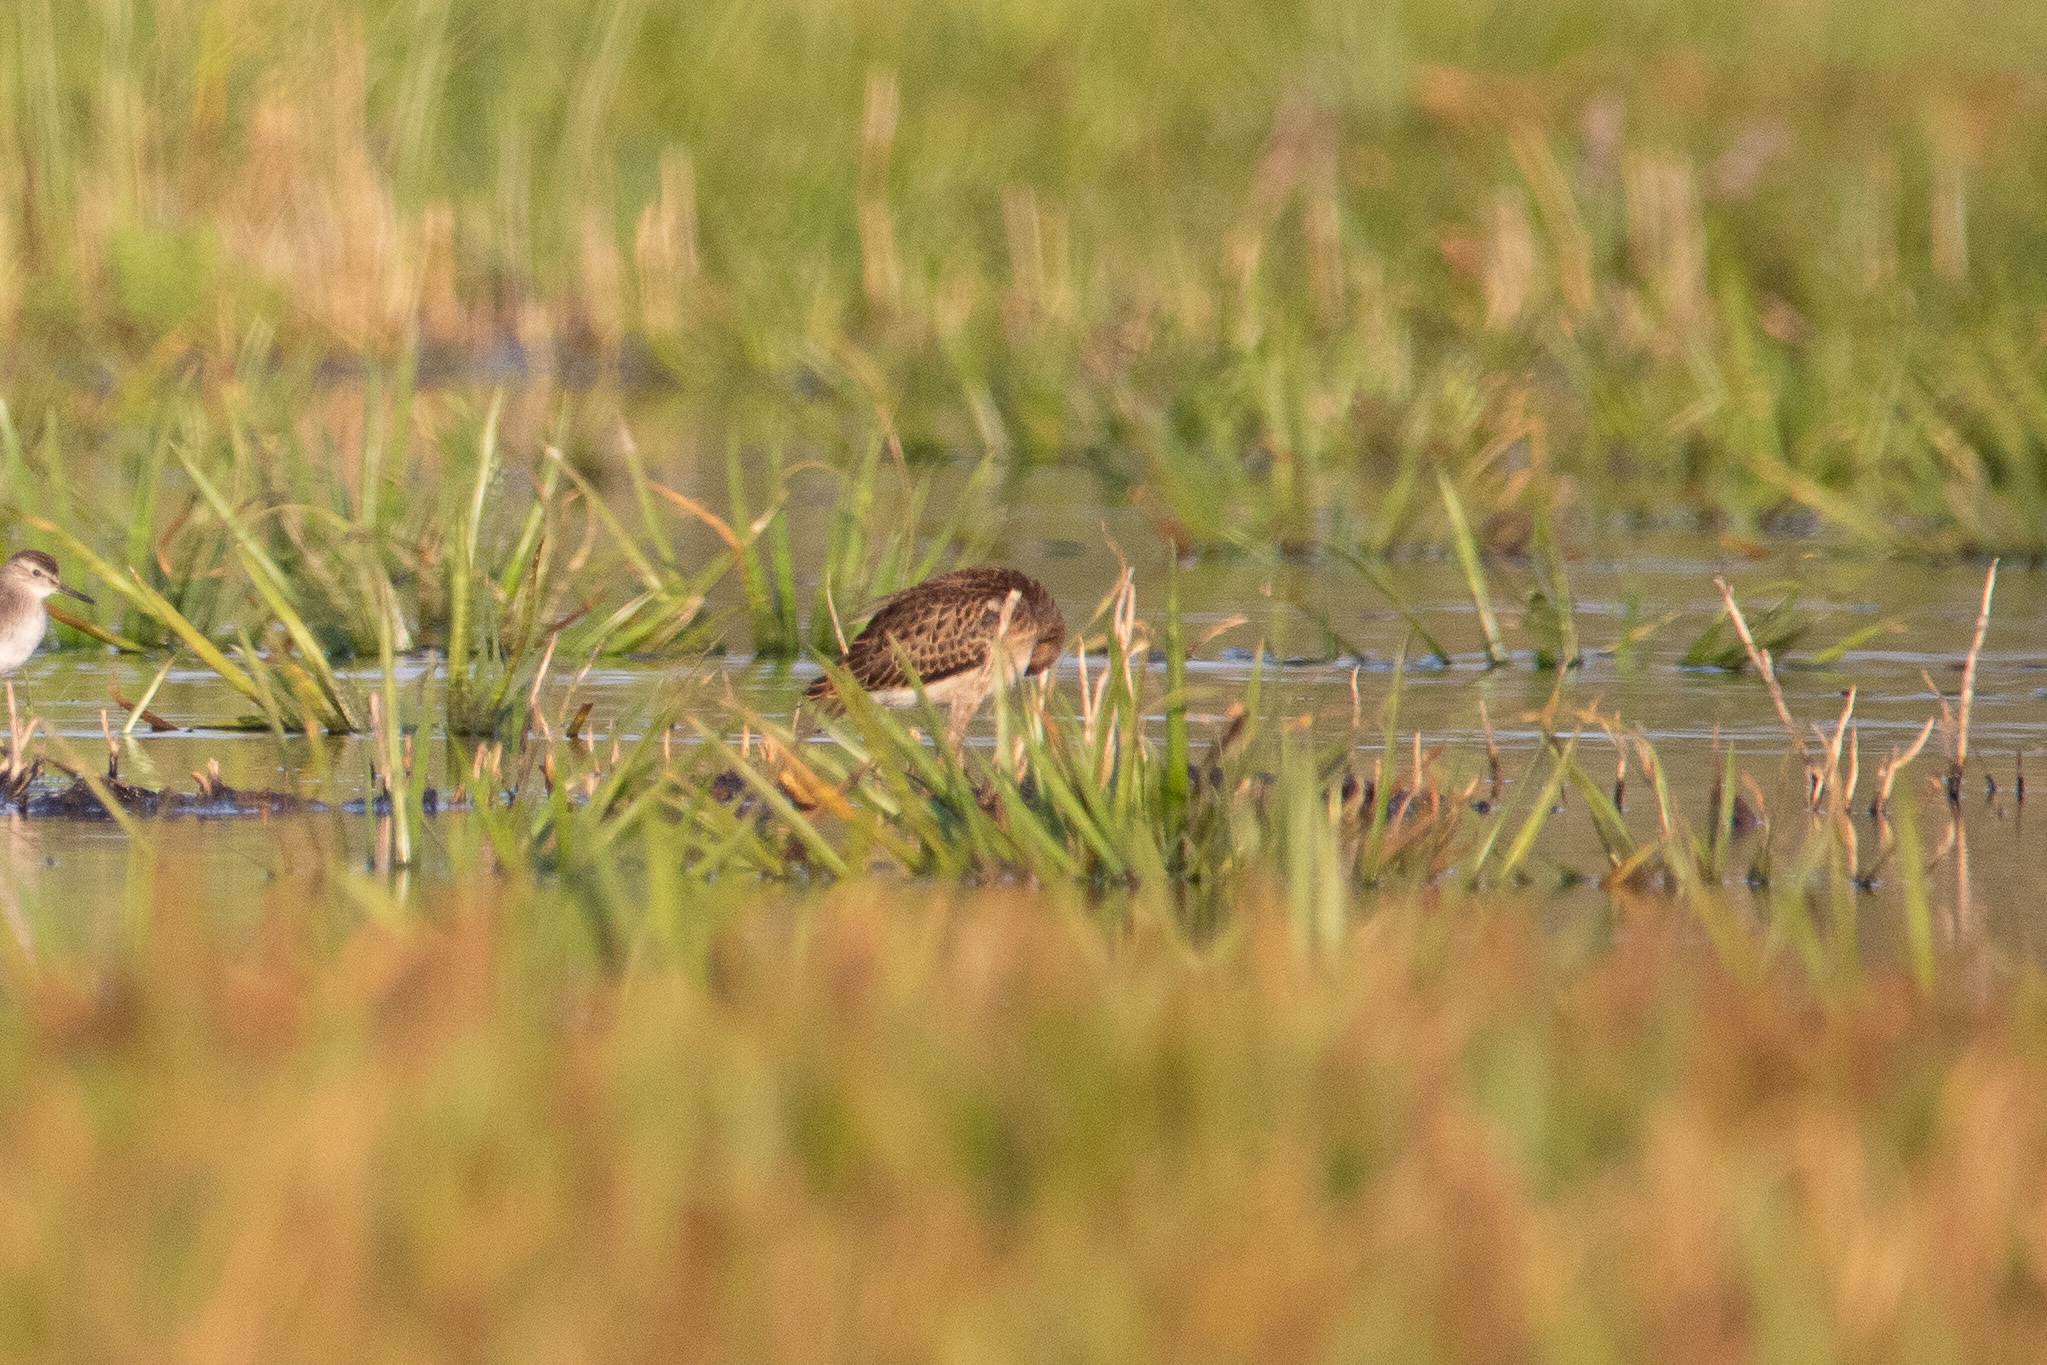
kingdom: Animalia
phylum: Chordata
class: Aves
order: Charadriiformes
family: Scolopacidae
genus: Calidris
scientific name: Calidris pugnax
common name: Ruff
